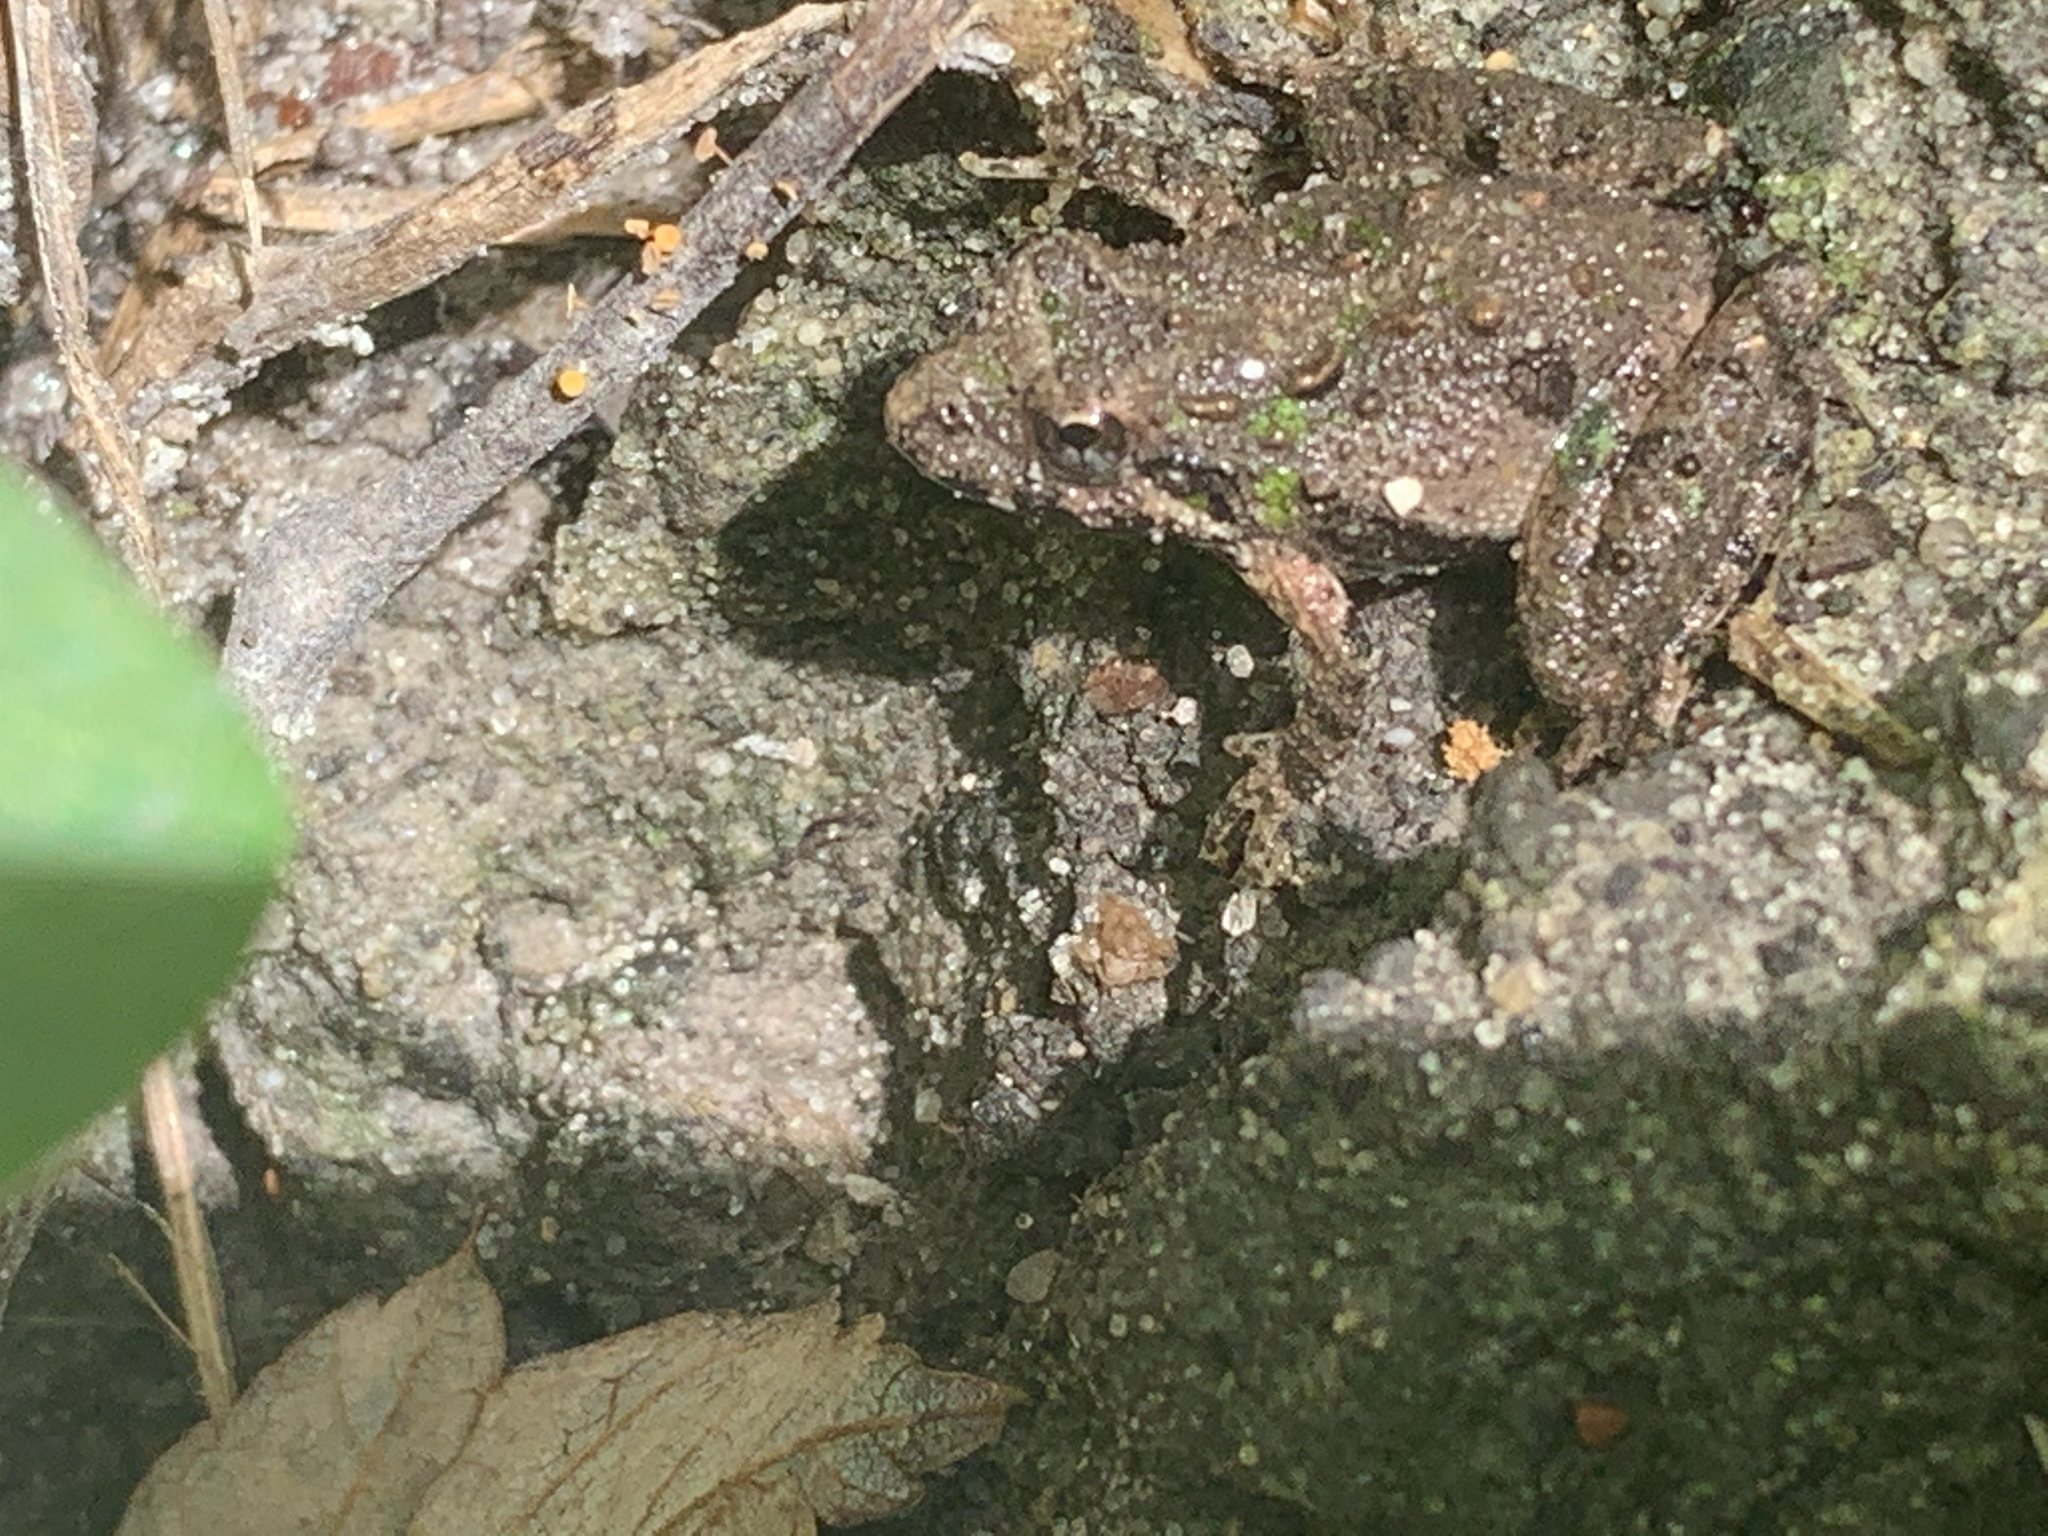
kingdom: Animalia
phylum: Chordata
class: Amphibia
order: Anura
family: Hylidae
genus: Acris
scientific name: Acris crepitans
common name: Northern cricket frog
